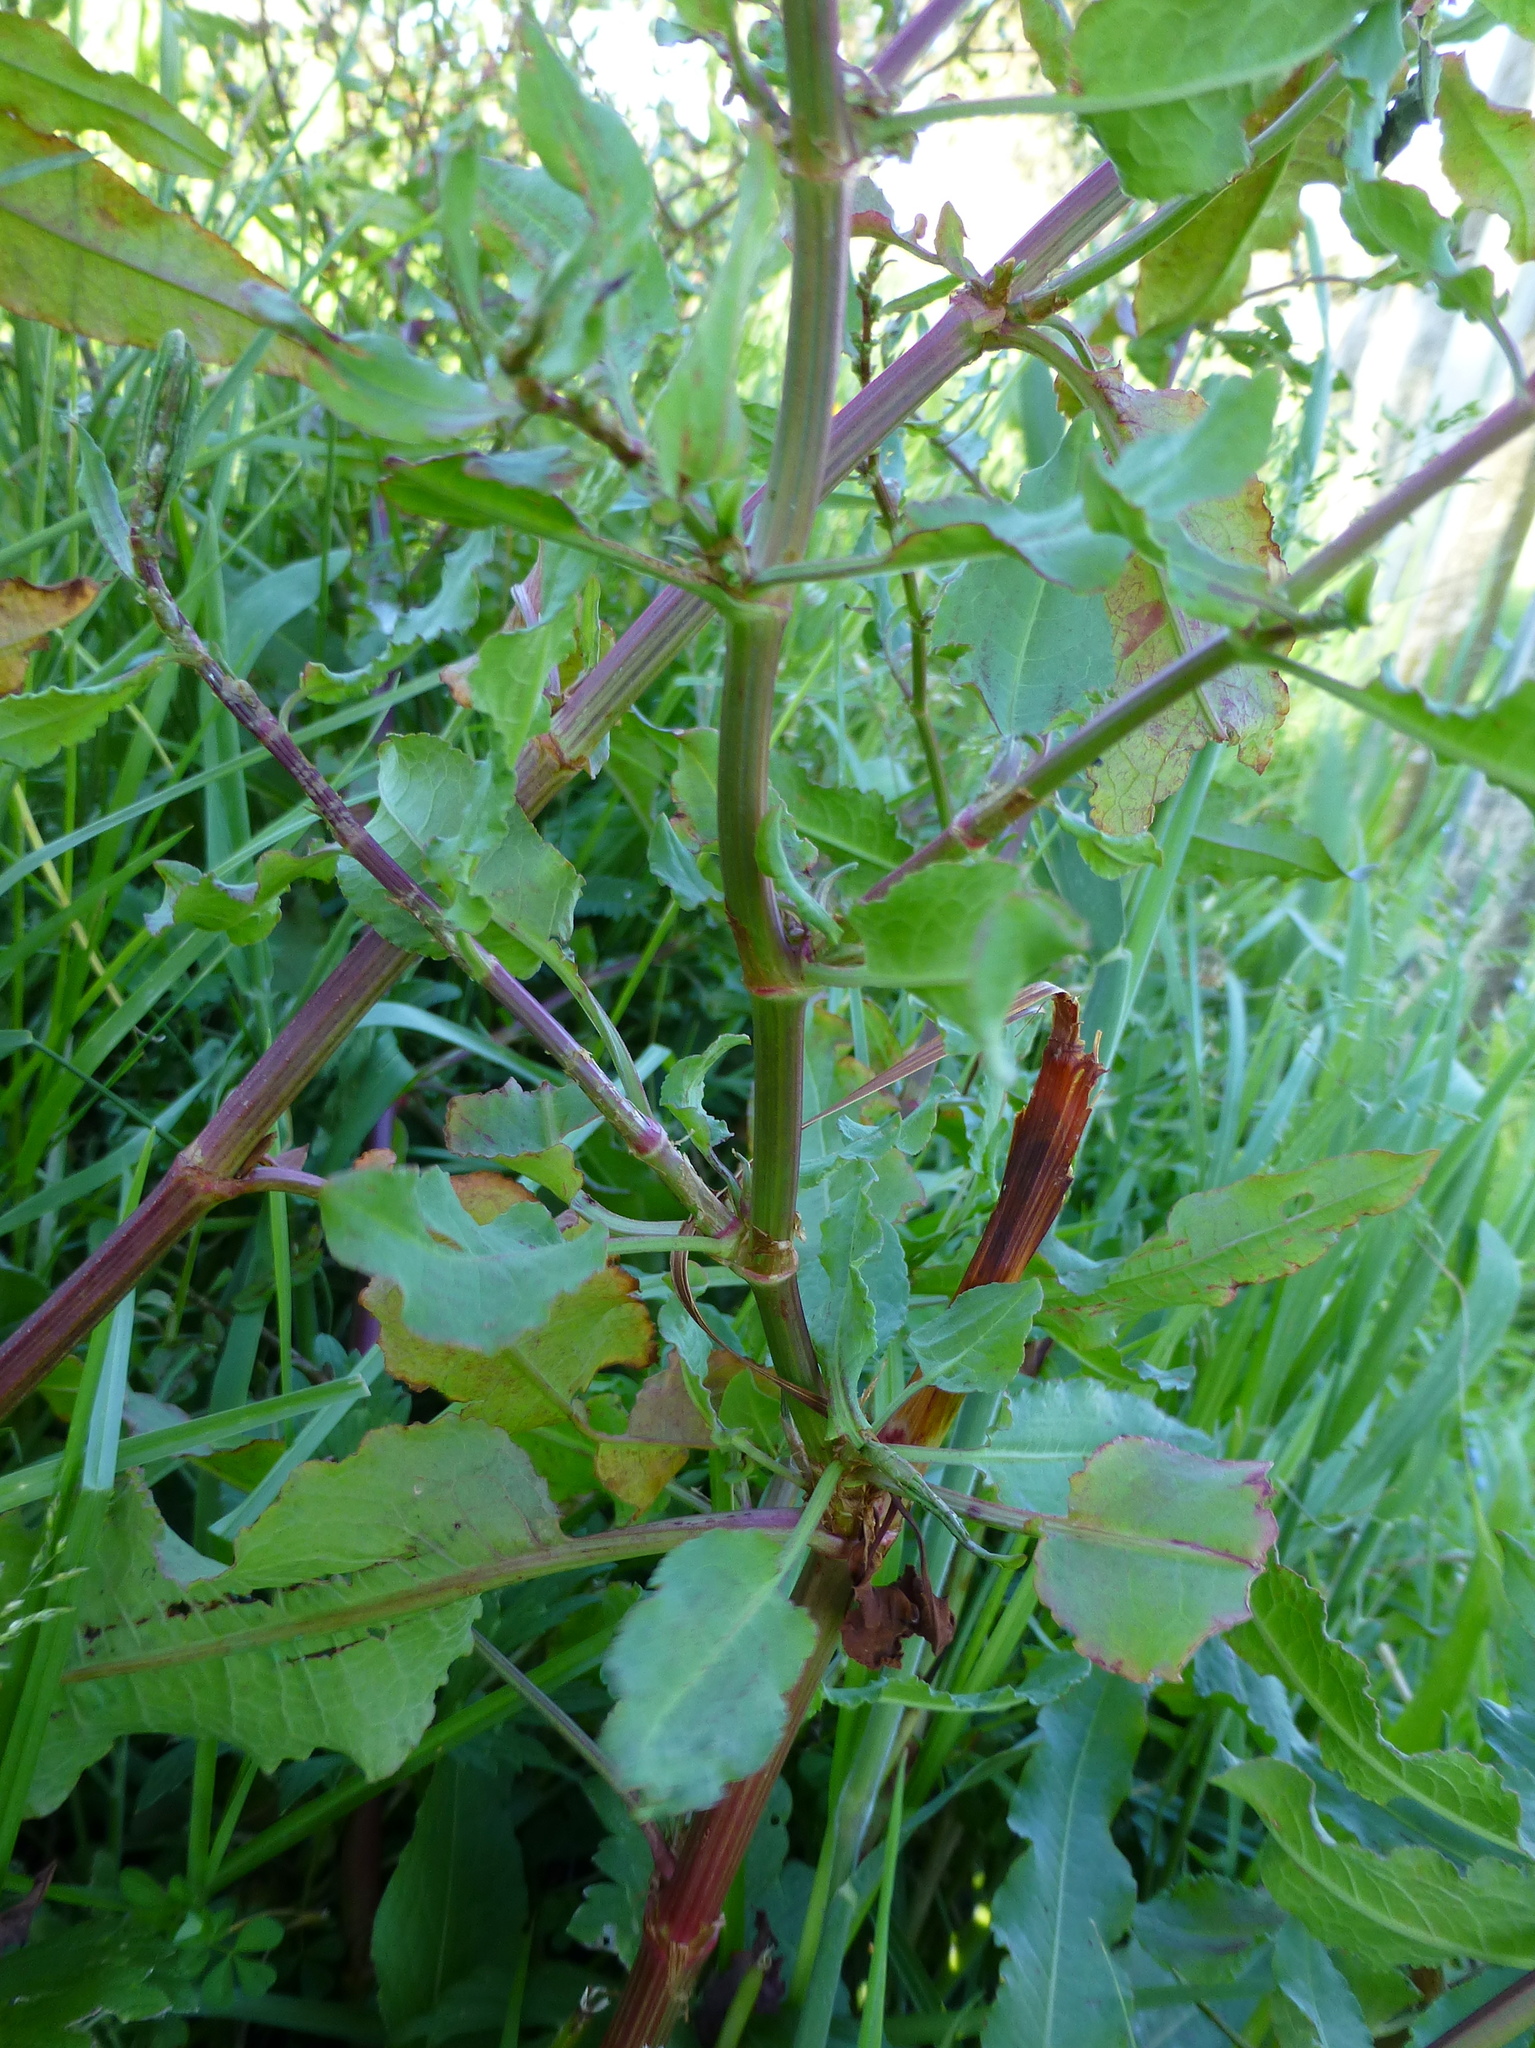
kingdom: Plantae
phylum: Tracheophyta
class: Magnoliopsida
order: Caryophyllales
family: Polygonaceae
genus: Rumex
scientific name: Rumex obtusifolius
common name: Bitter dock
